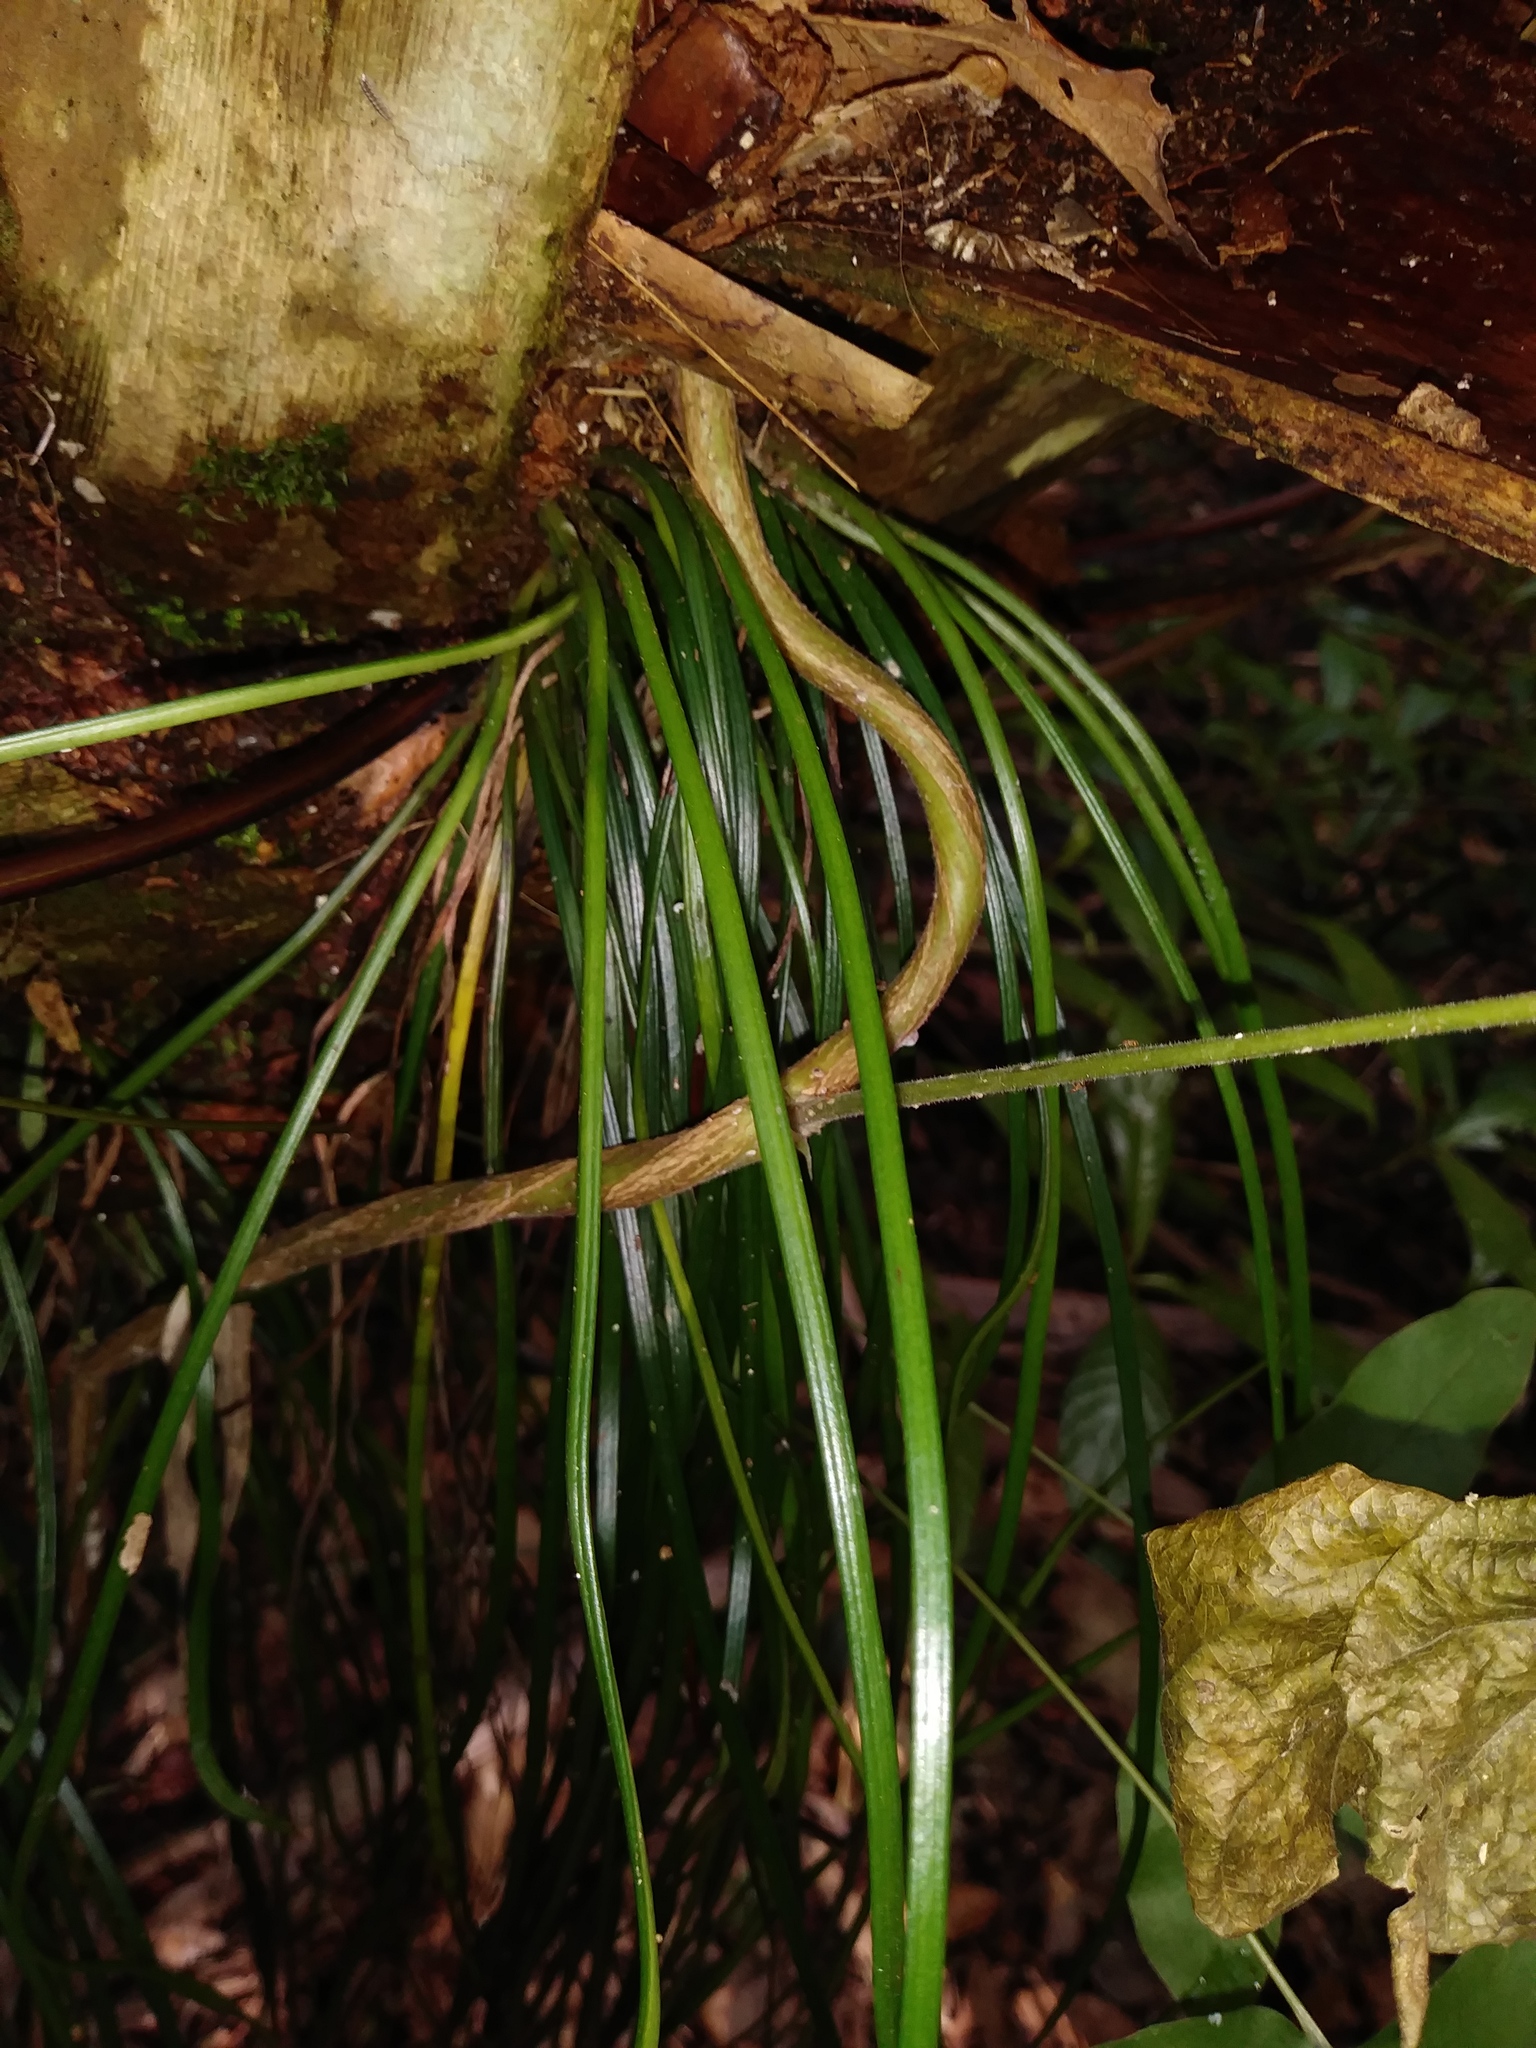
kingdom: Plantae
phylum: Tracheophyta
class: Polypodiopsida
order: Polypodiales
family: Pteridaceae
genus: Vittaria
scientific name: Vittaria lineata
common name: Shoestring fern
